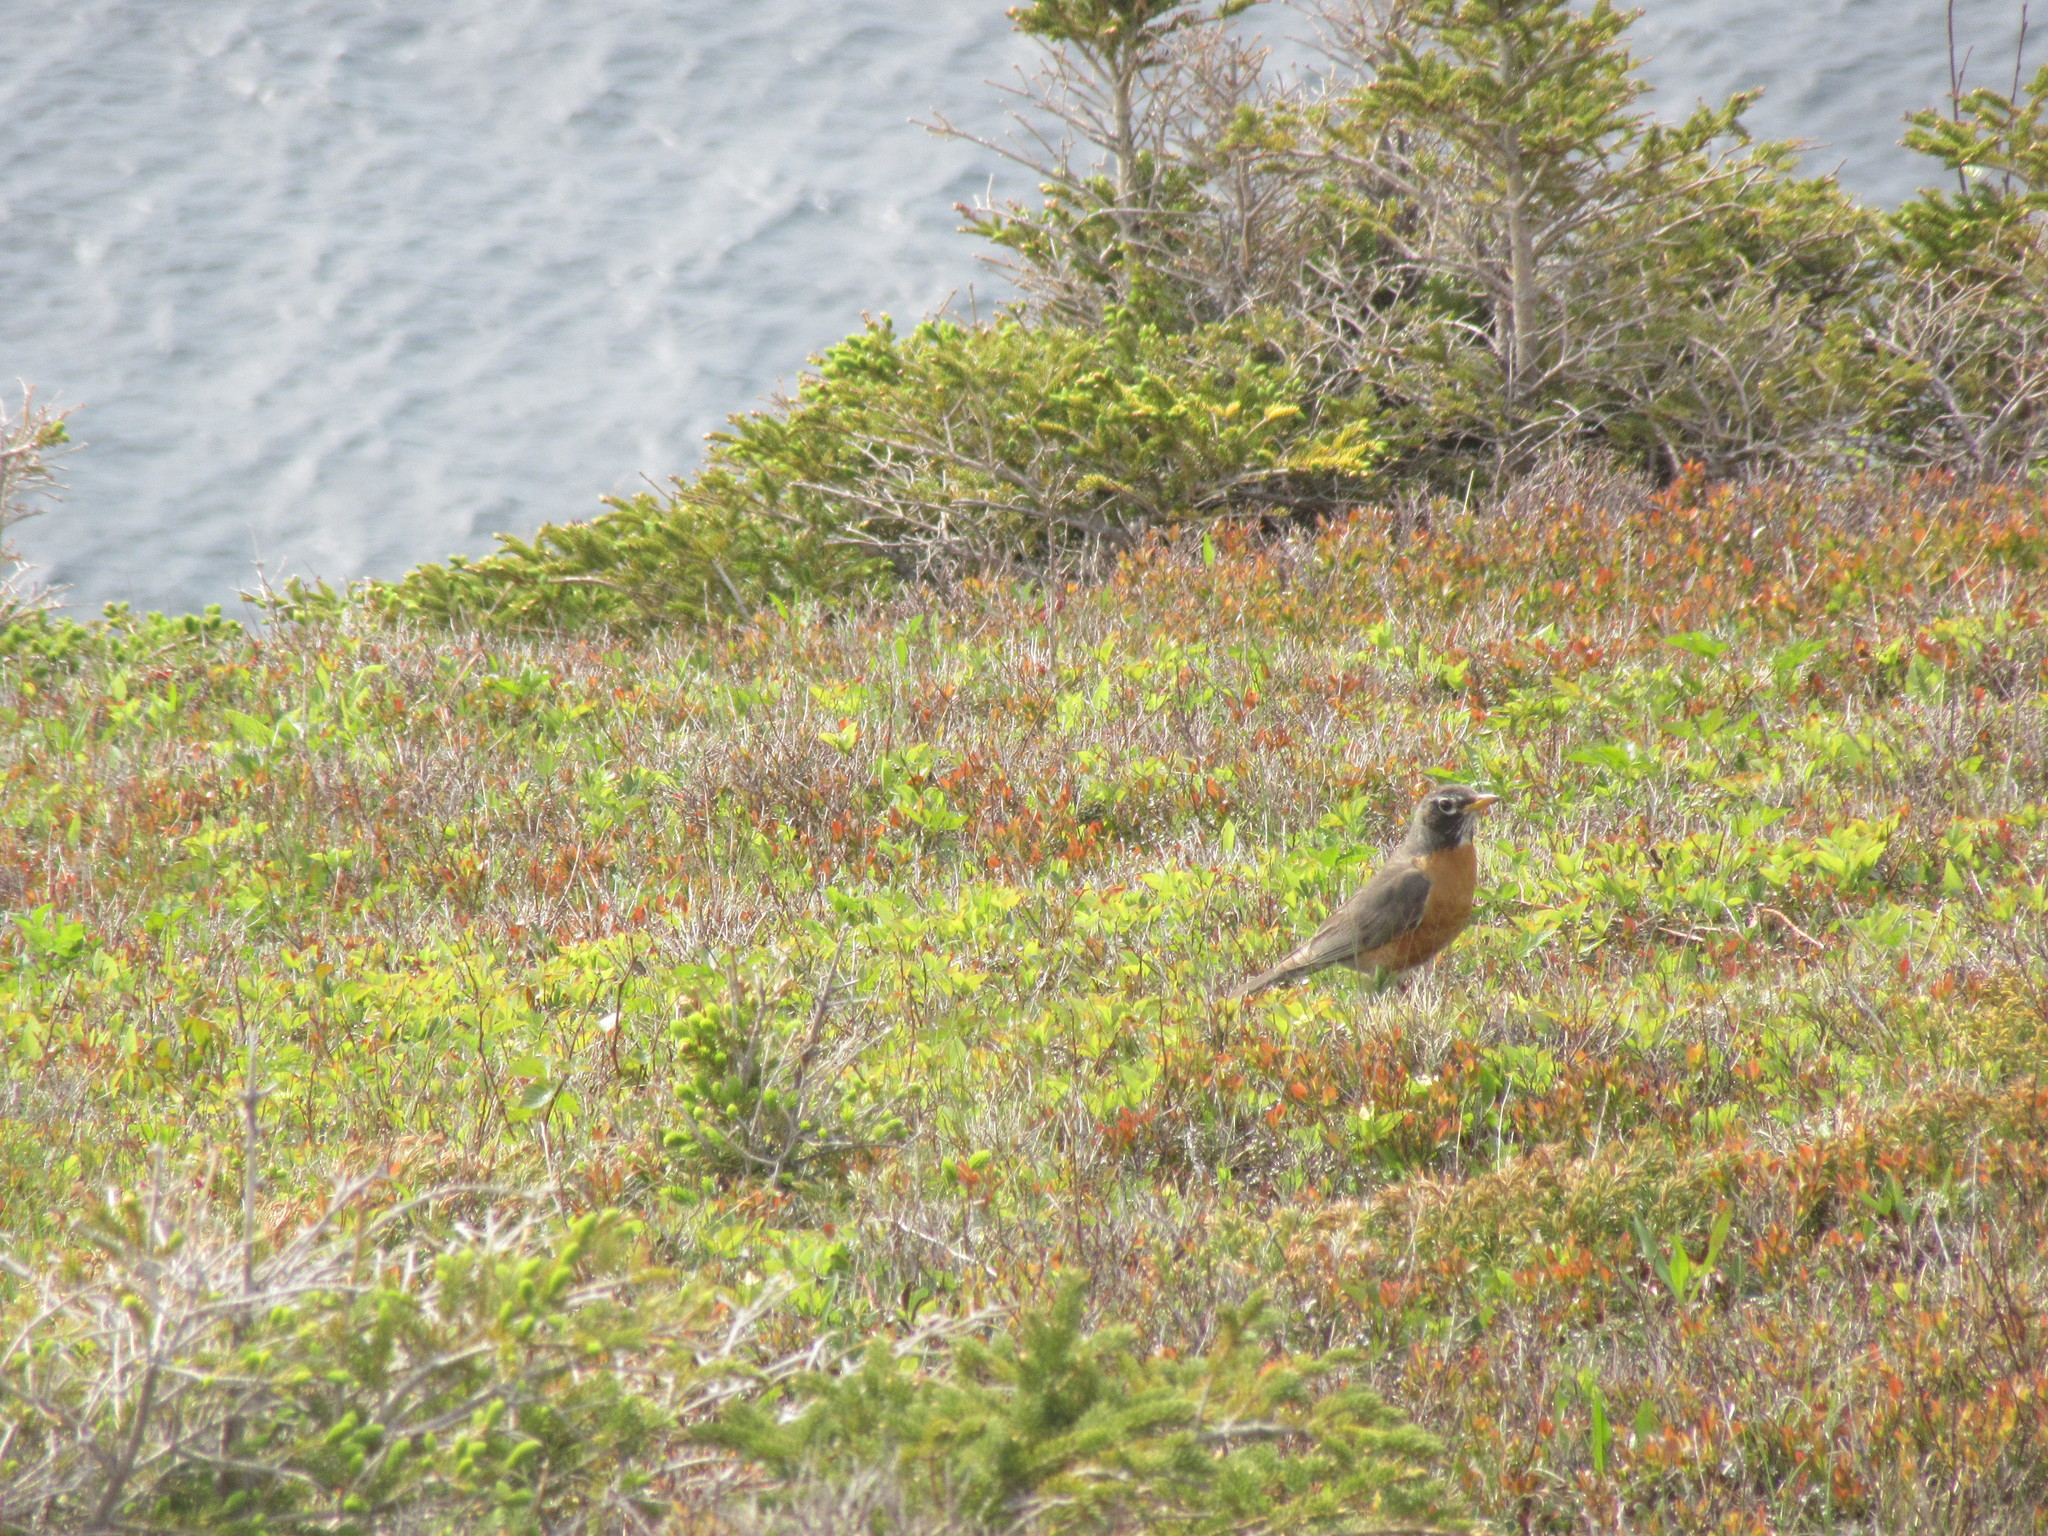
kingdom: Animalia
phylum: Chordata
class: Aves
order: Passeriformes
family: Turdidae
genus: Turdus
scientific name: Turdus migratorius
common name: American robin
